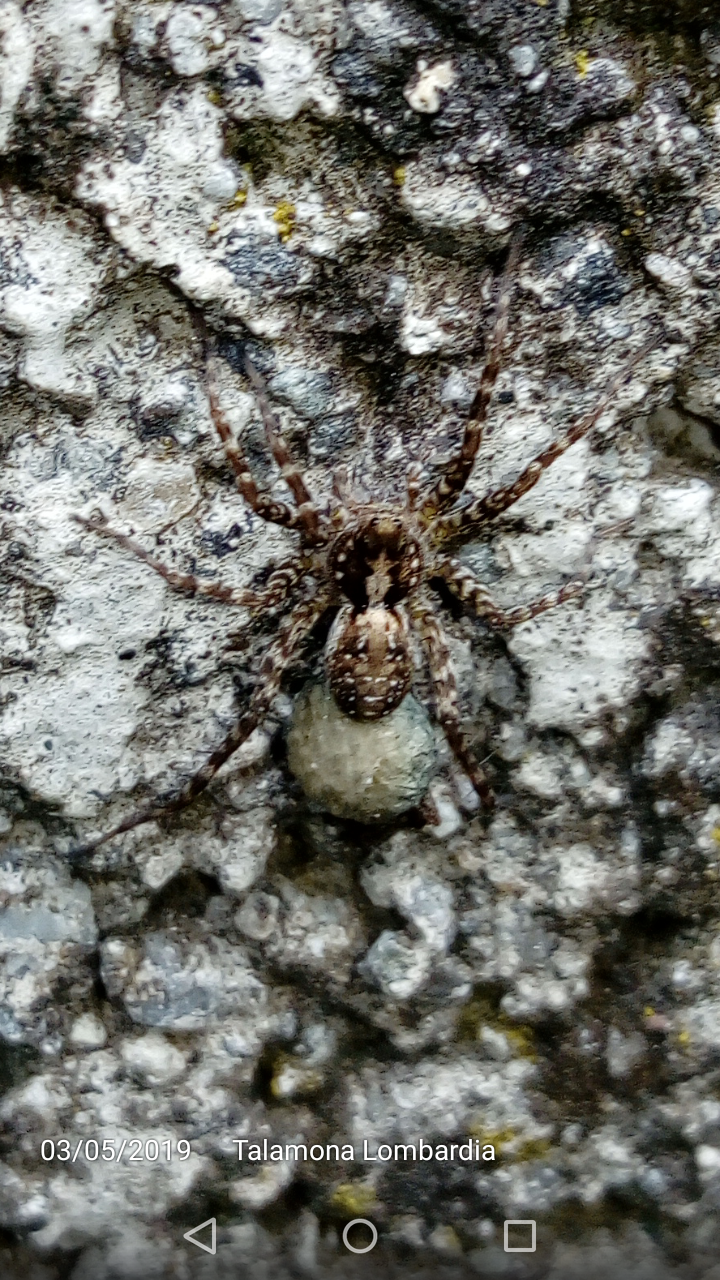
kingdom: Animalia
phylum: Arthropoda
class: Arachnida
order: Araneae
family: Lycosidae
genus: Pardosa
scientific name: Pardosa agricola
